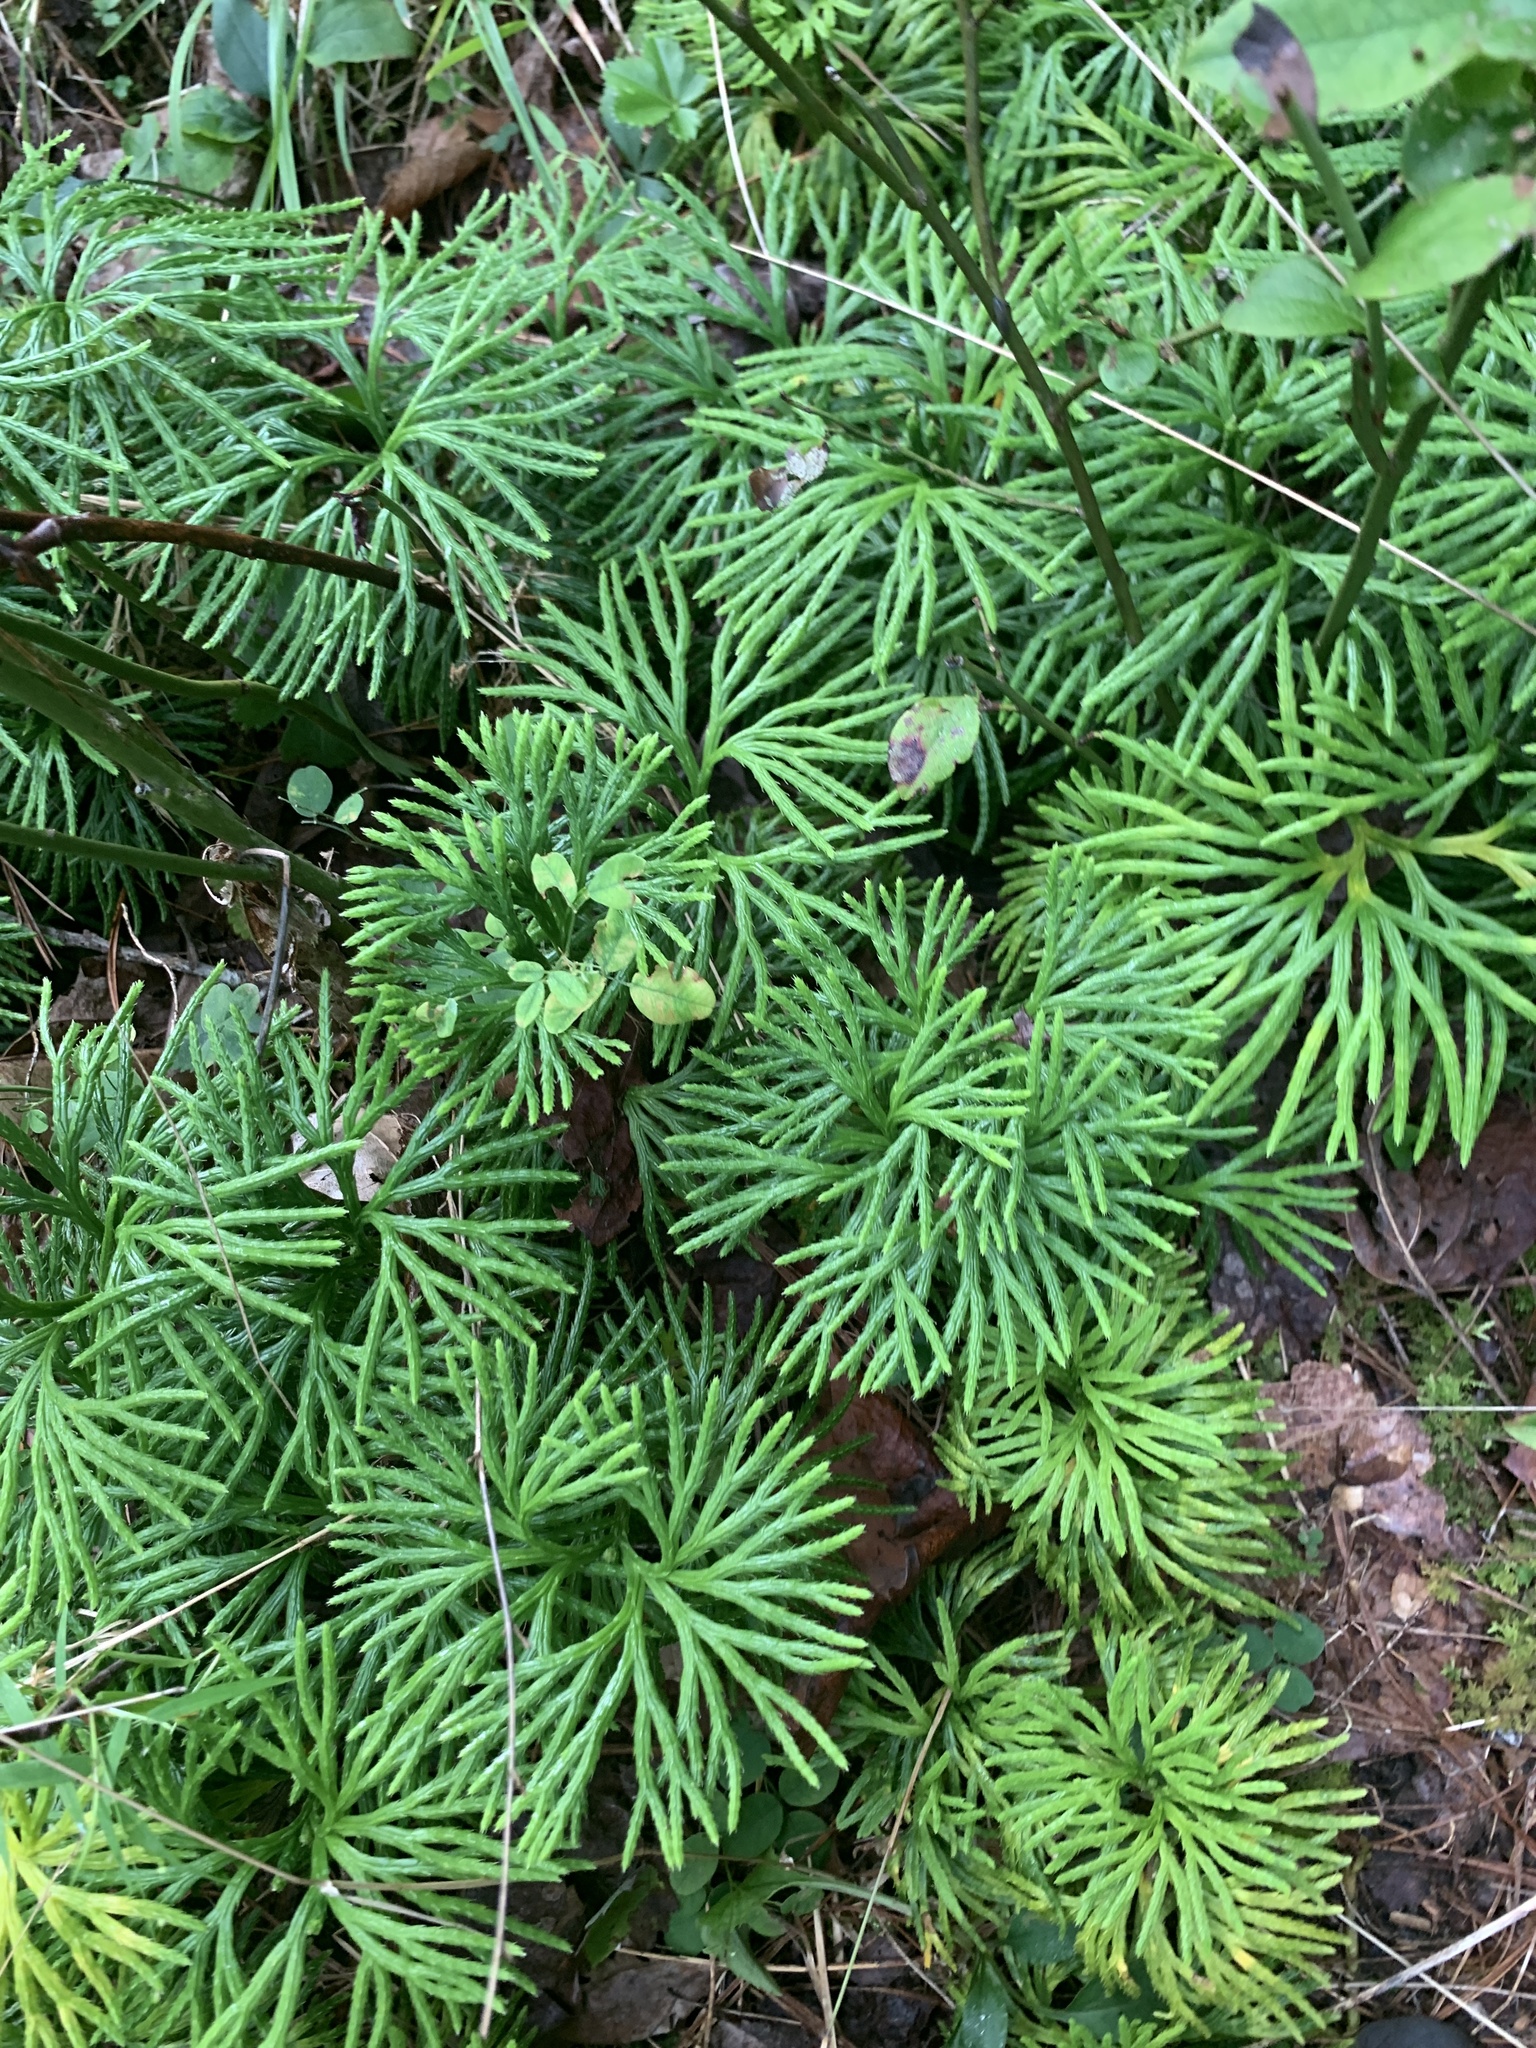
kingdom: Plantae
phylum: Tracheophyta
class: Lycopodiopsida
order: Lycopodiales
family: Lycopodiaceae
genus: Diphasiastrum
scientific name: Diphasiastrum digitatum
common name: Southern running-pine
